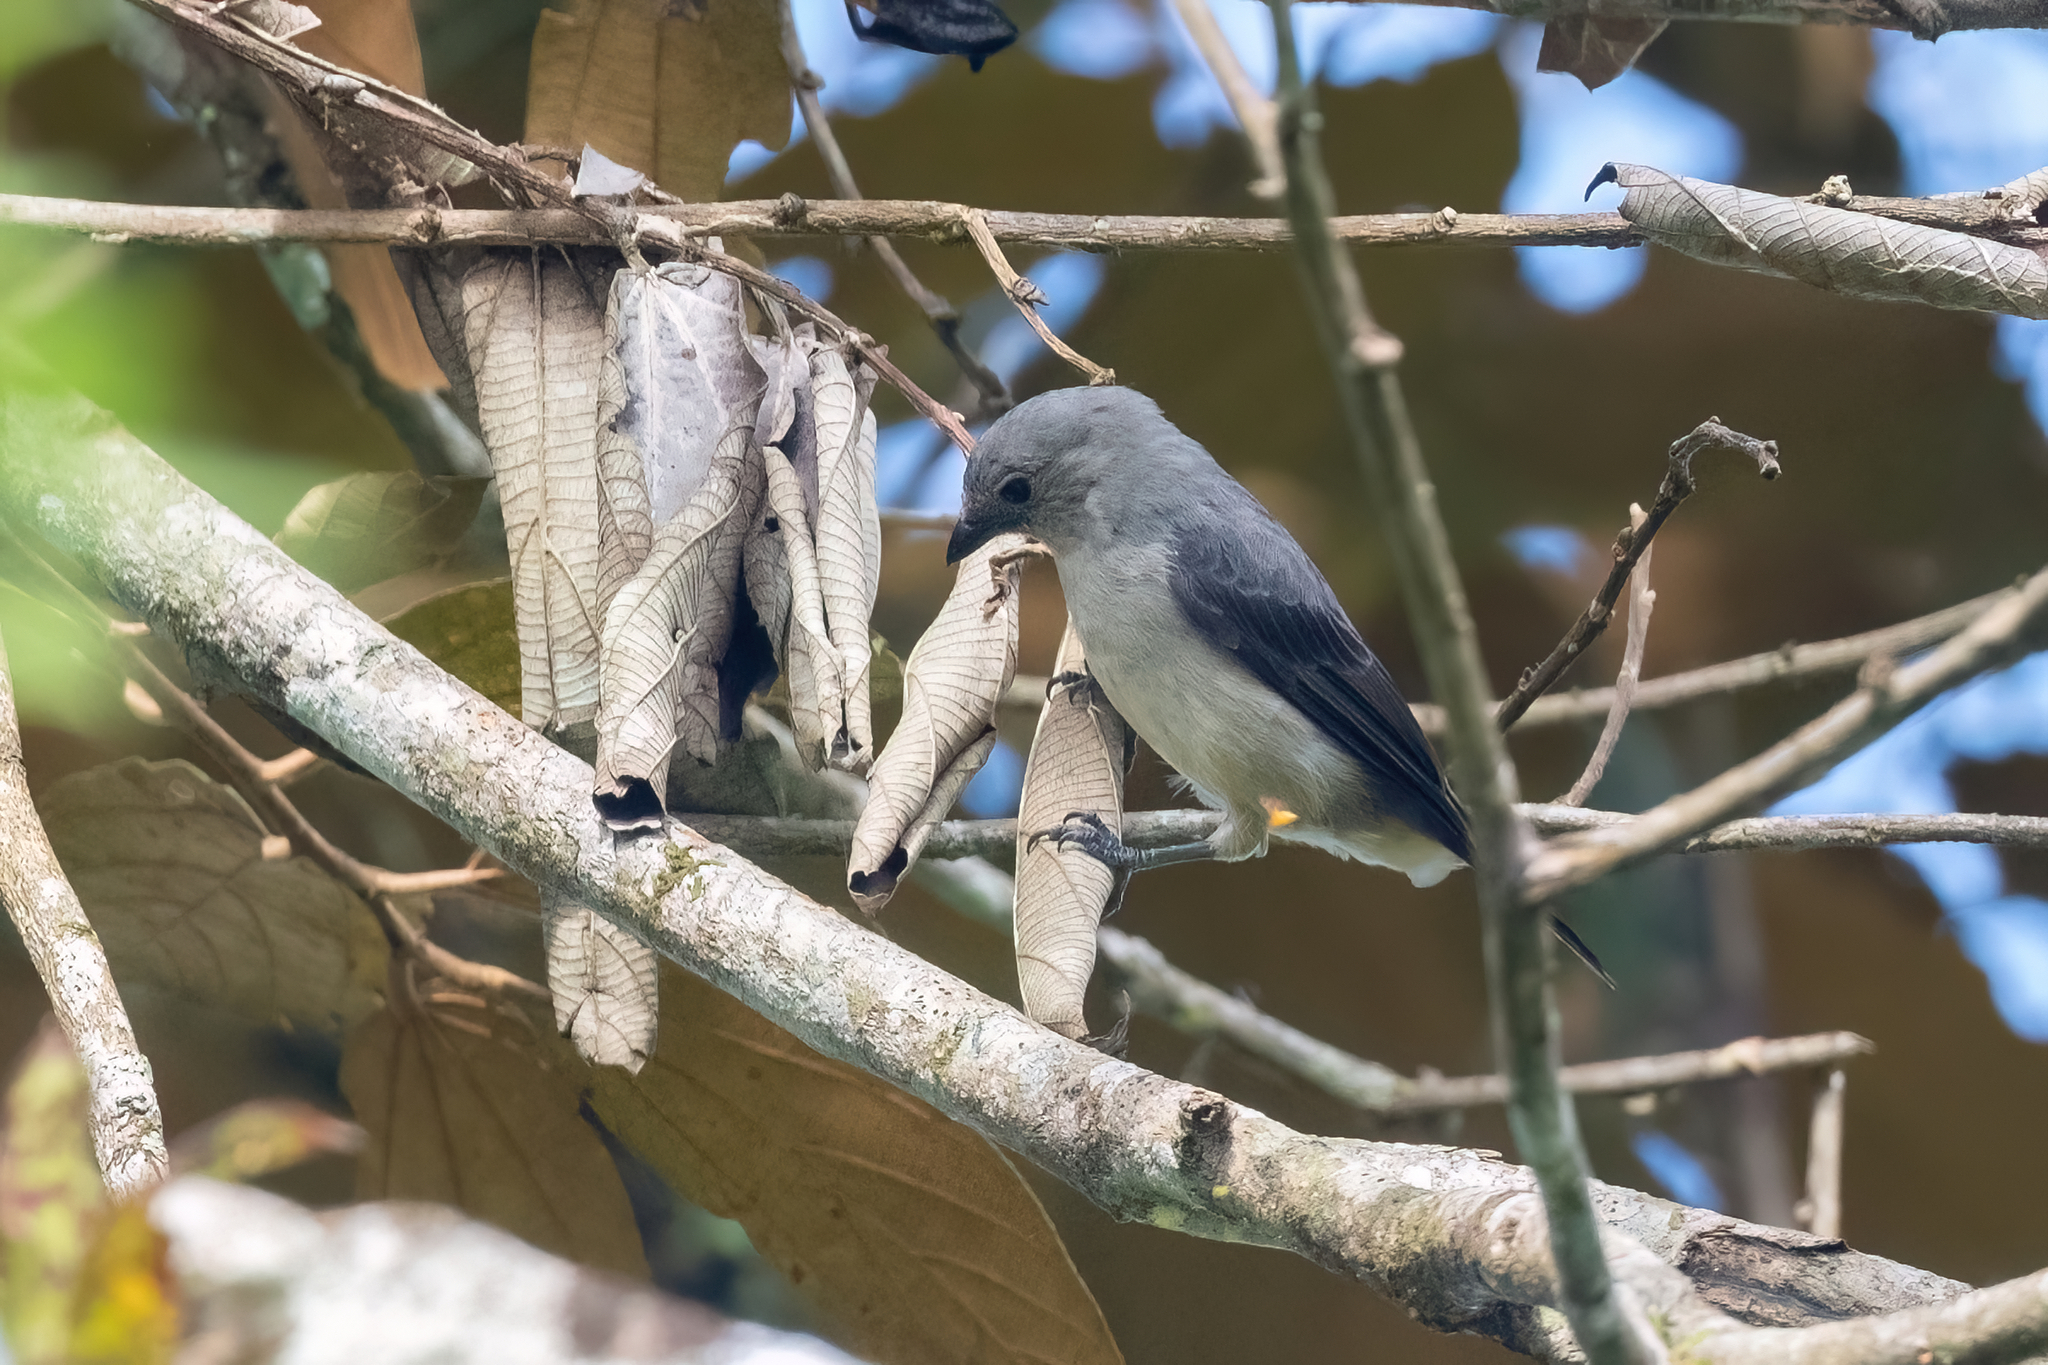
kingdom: Animalia
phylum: Chordata
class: Aves
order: Passeriformes
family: Thraupidae
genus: Tangara
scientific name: Tangara inornata
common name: Plain-colored tanager
